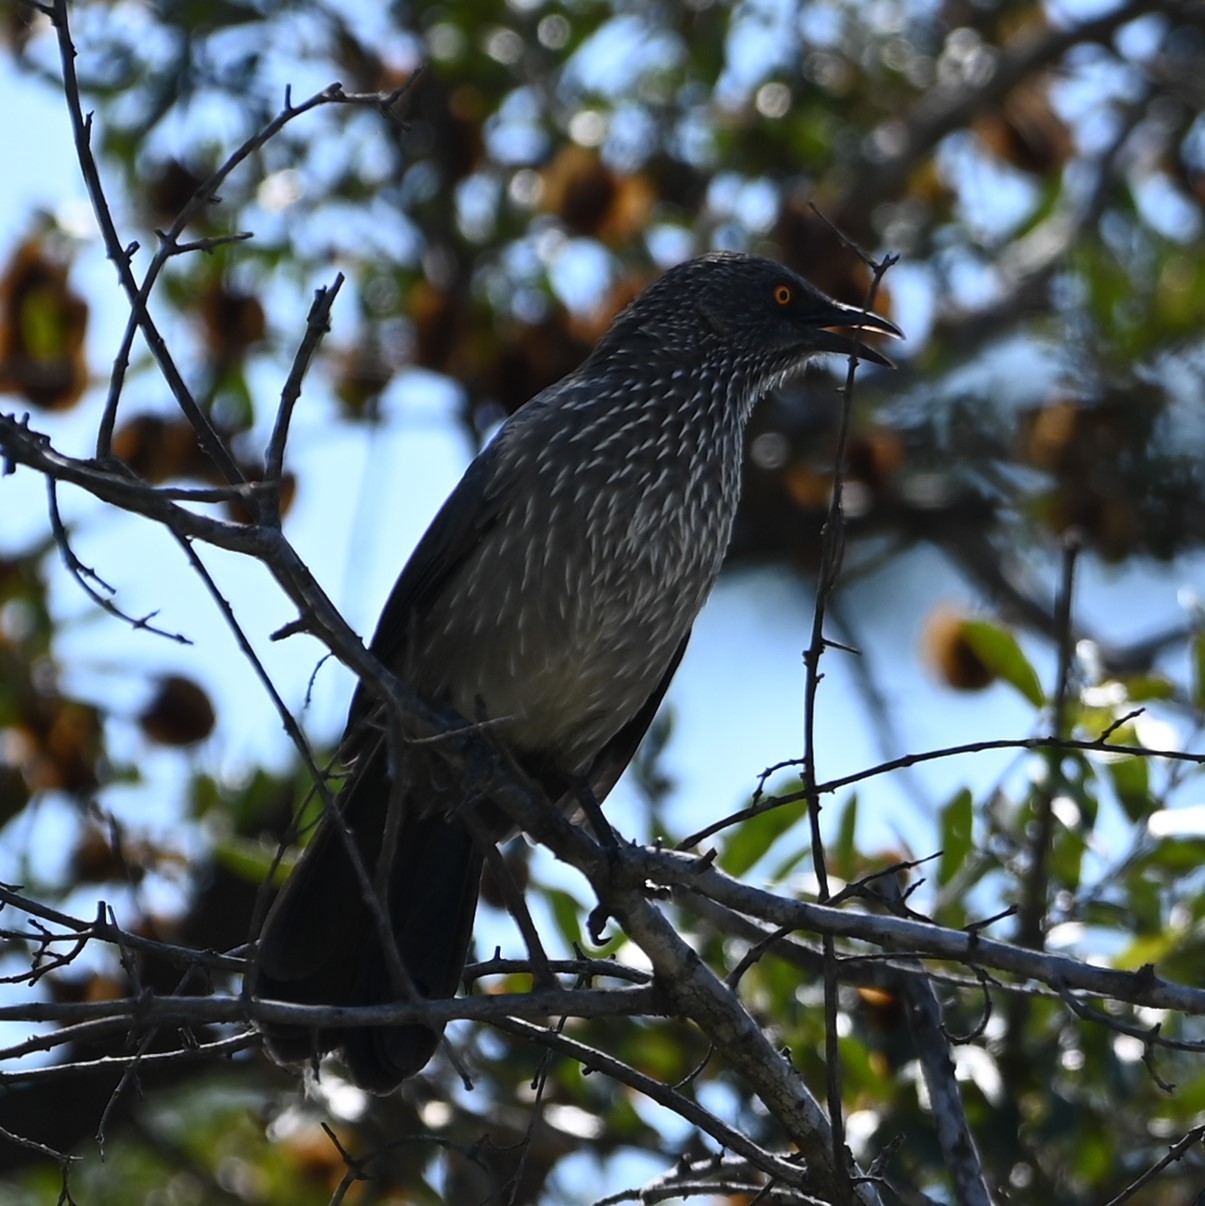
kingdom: Animalia
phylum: Chordata
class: Aves
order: Passeriformes
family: Leiothrichidae
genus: Turdoides
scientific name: Turdoides jardineii
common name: Arrow-marked babbler
